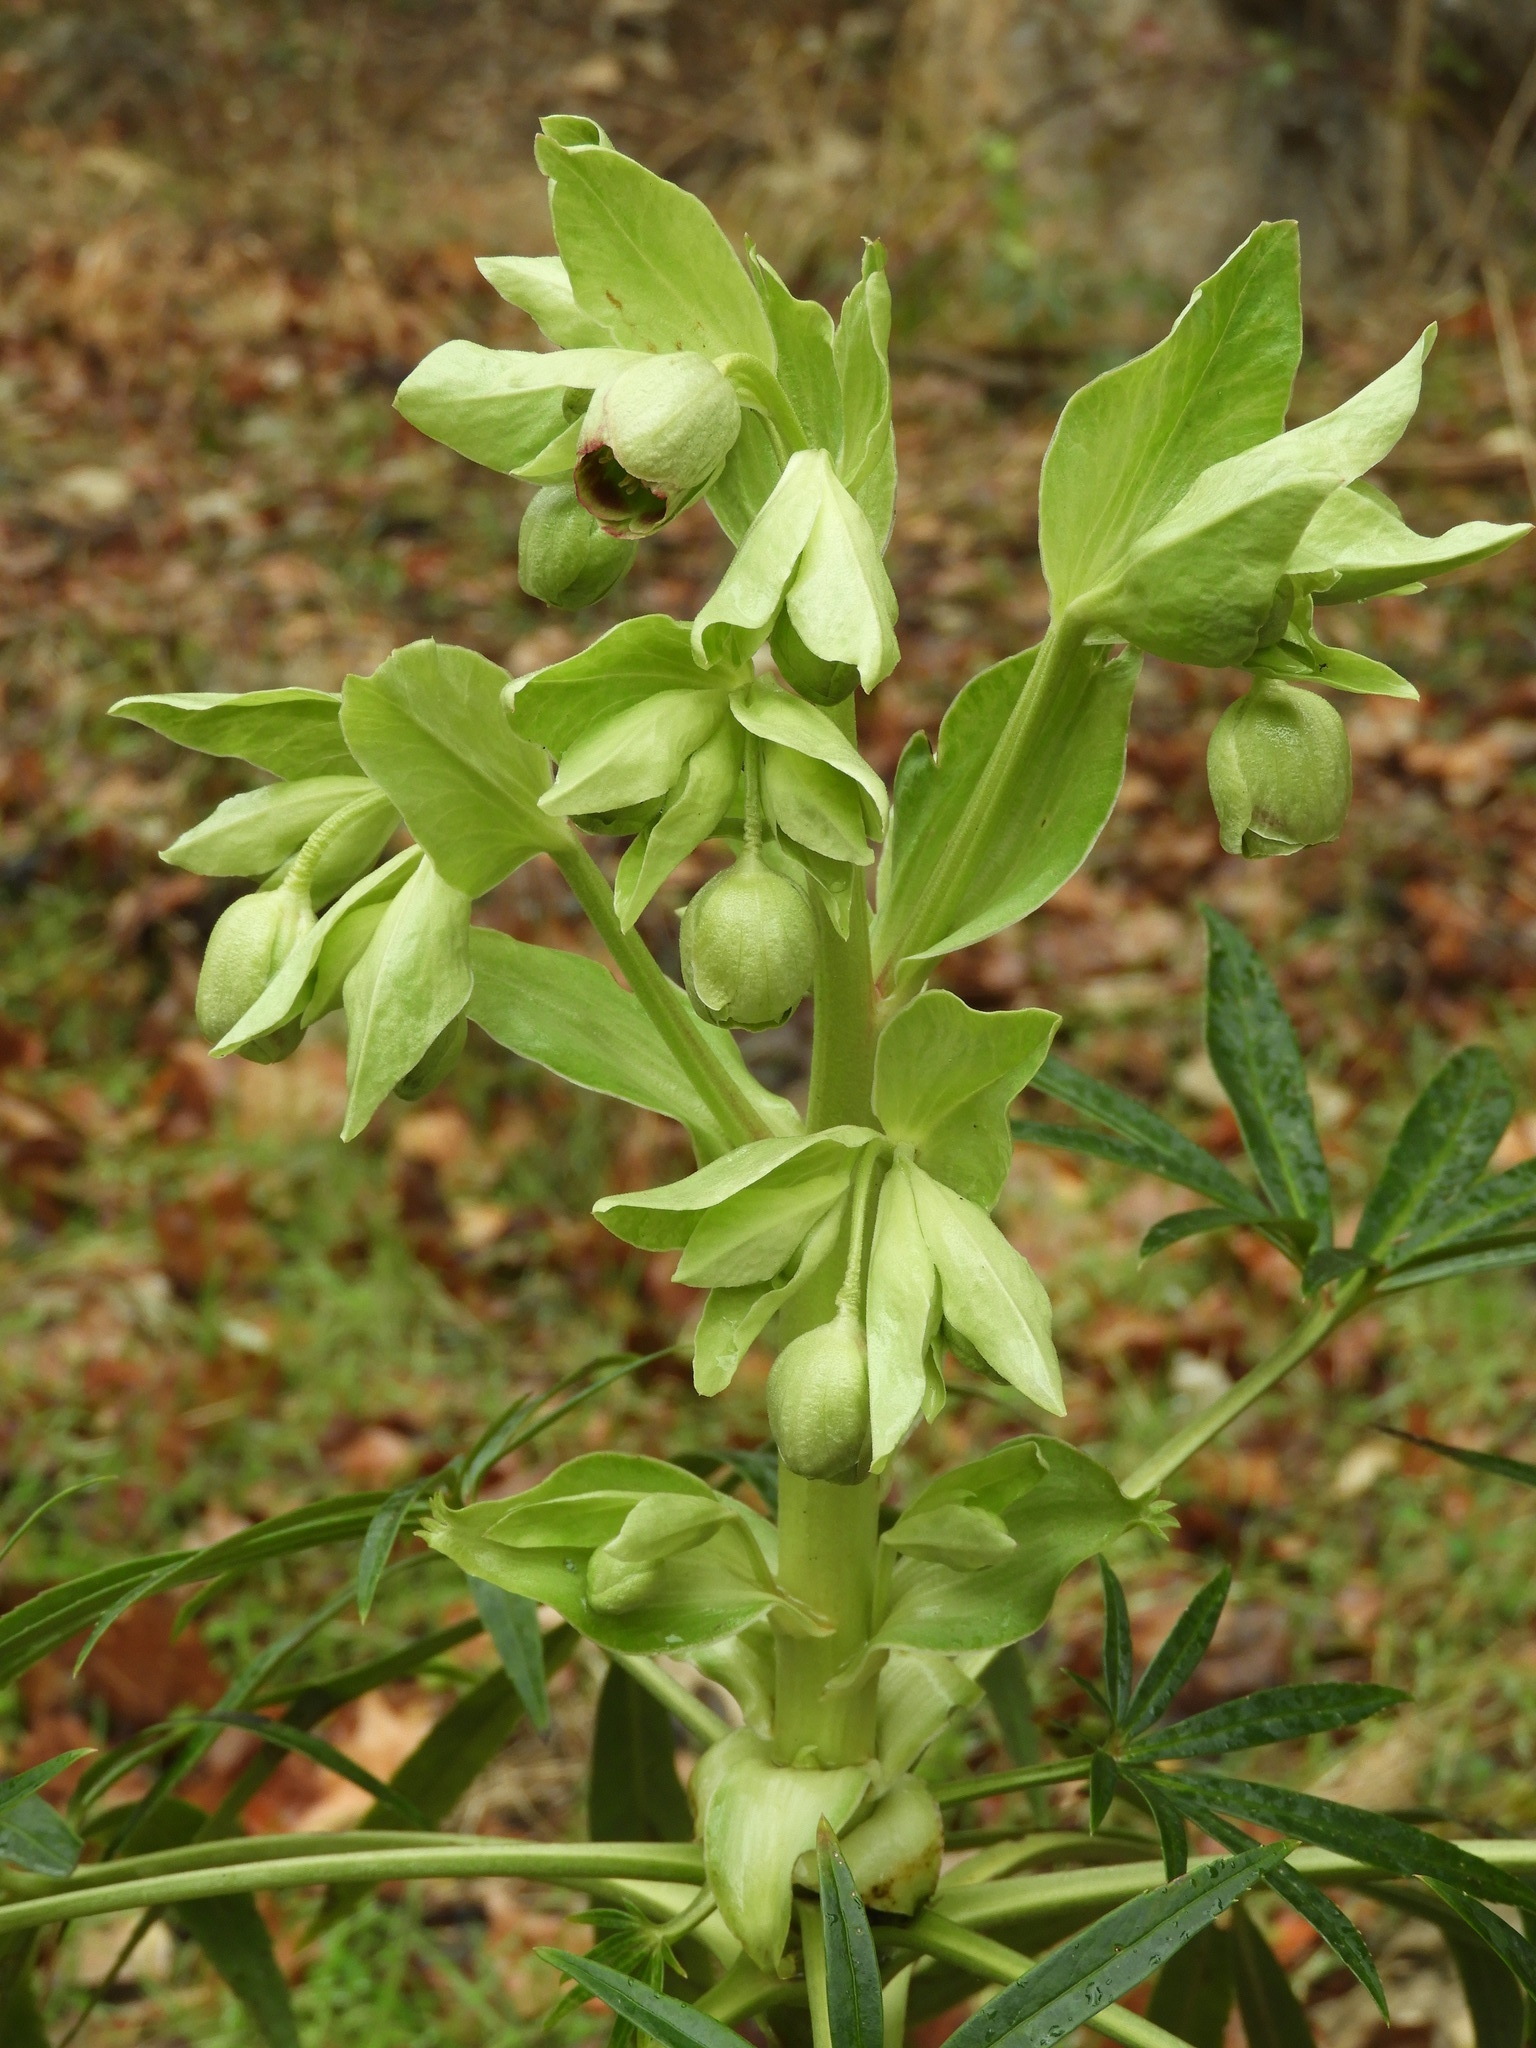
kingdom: Plantae
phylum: Tracheophyta
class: Magnoliopsida
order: Ranunculales
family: Ranunculaceae
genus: Helleborus
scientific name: Helleborus foetidus
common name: Stinking hellebore
